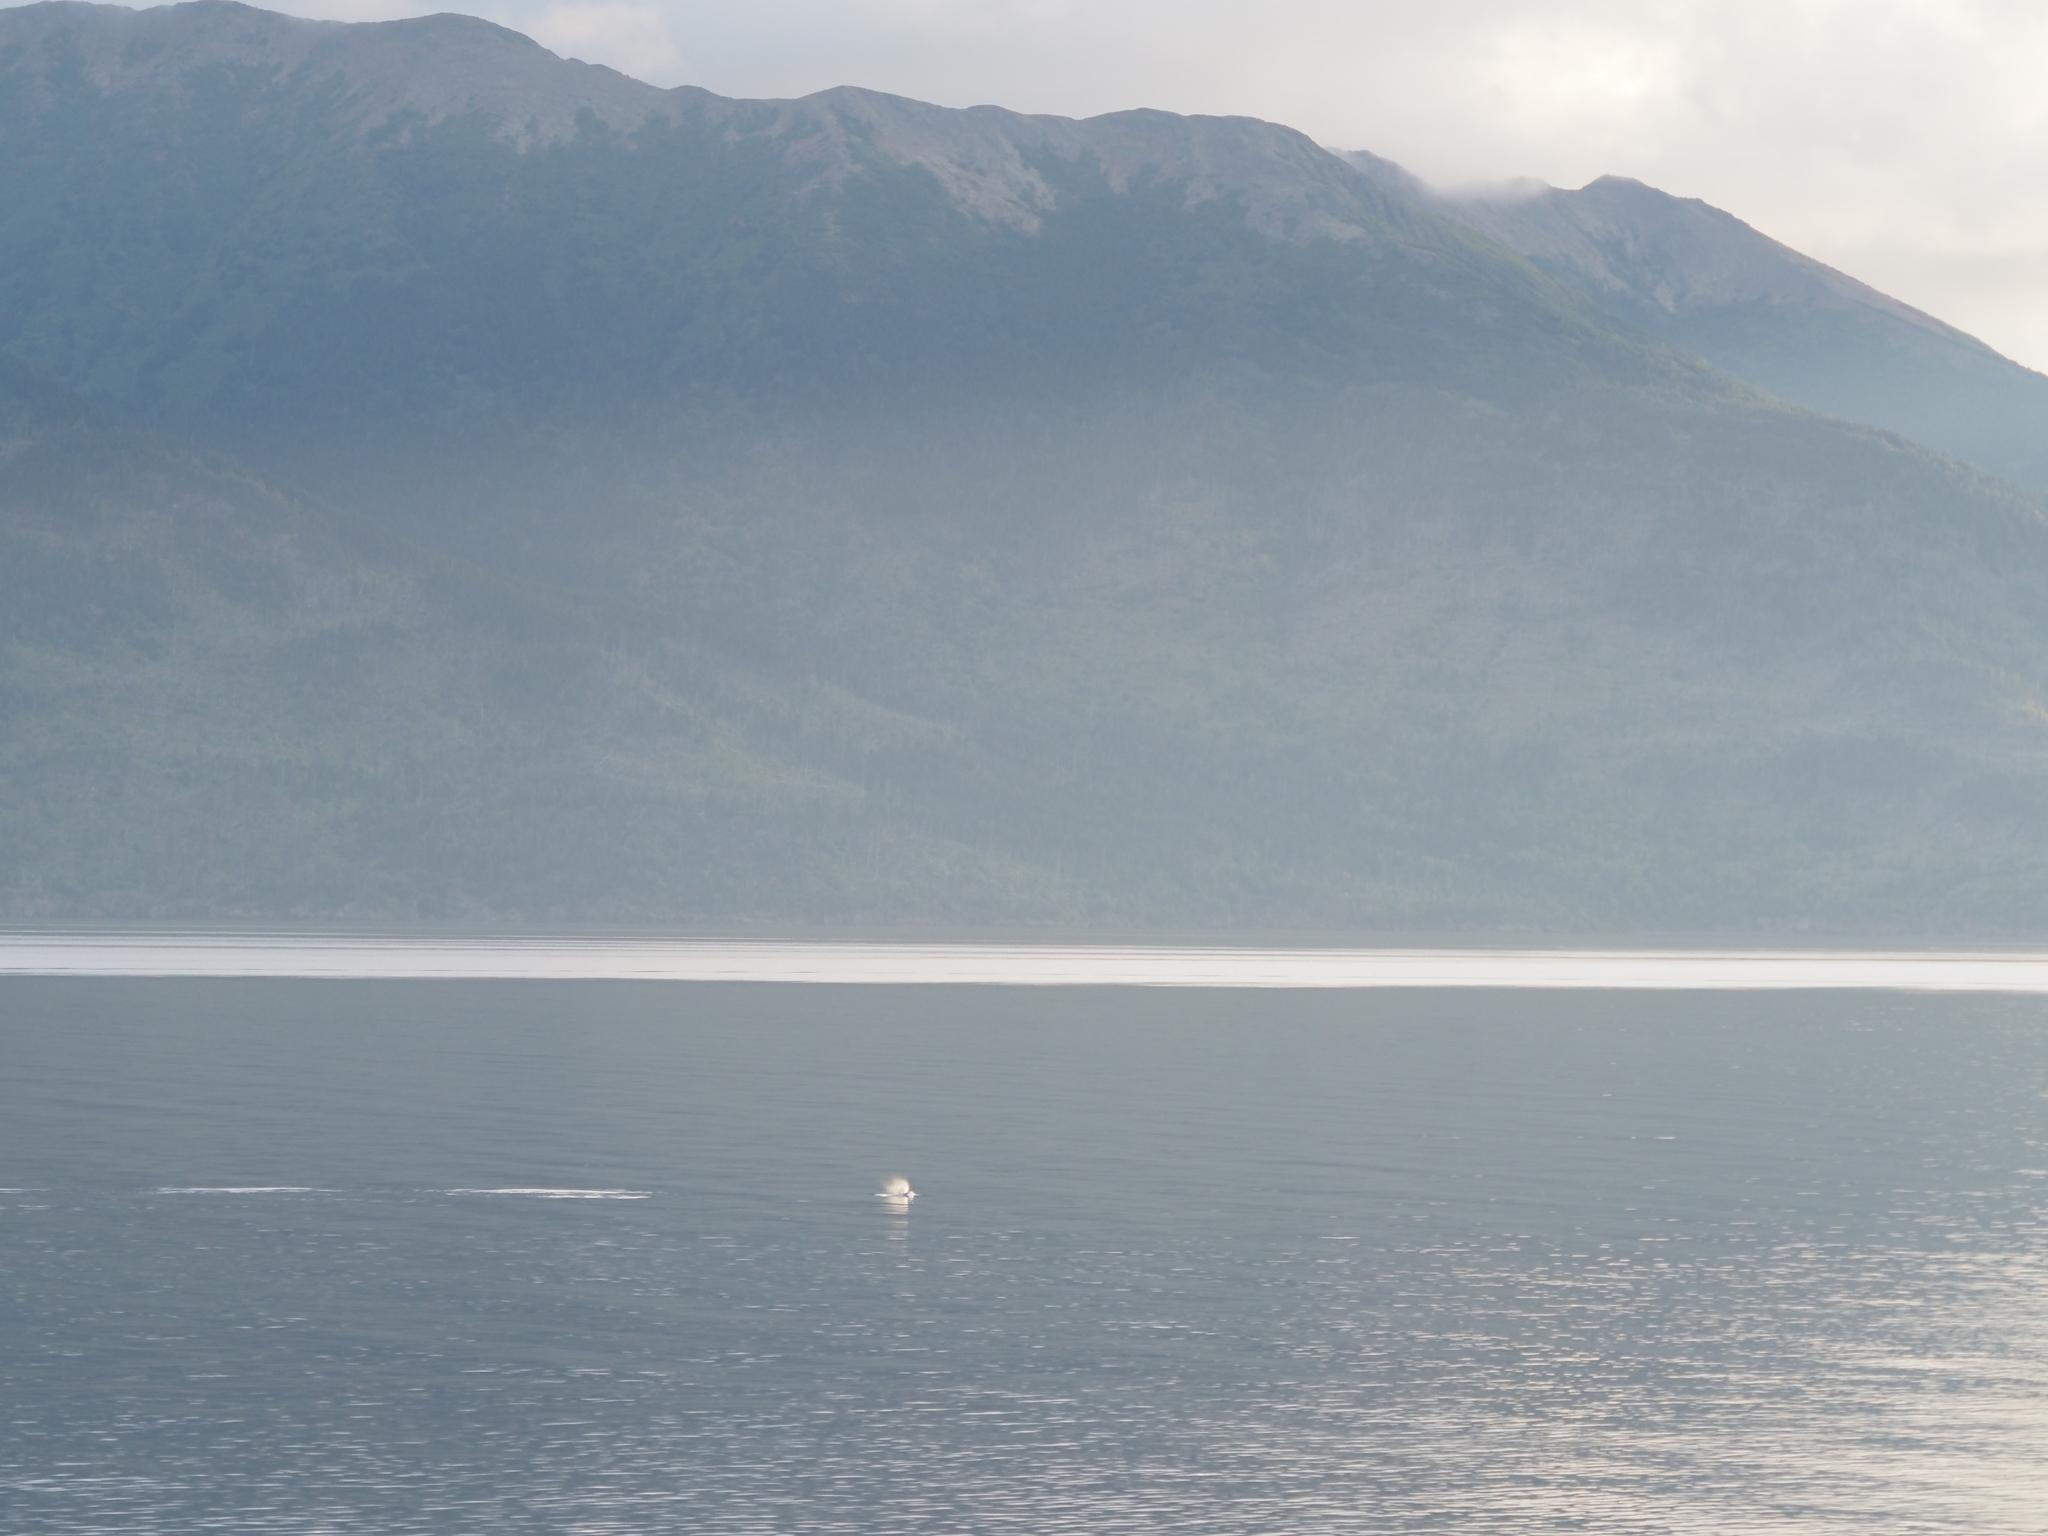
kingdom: Animalia
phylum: Chordata
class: Mammalia
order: Cetacea
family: Monodontidae
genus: Delphinapterus
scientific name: Delphinapterus leucas
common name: Beluga
